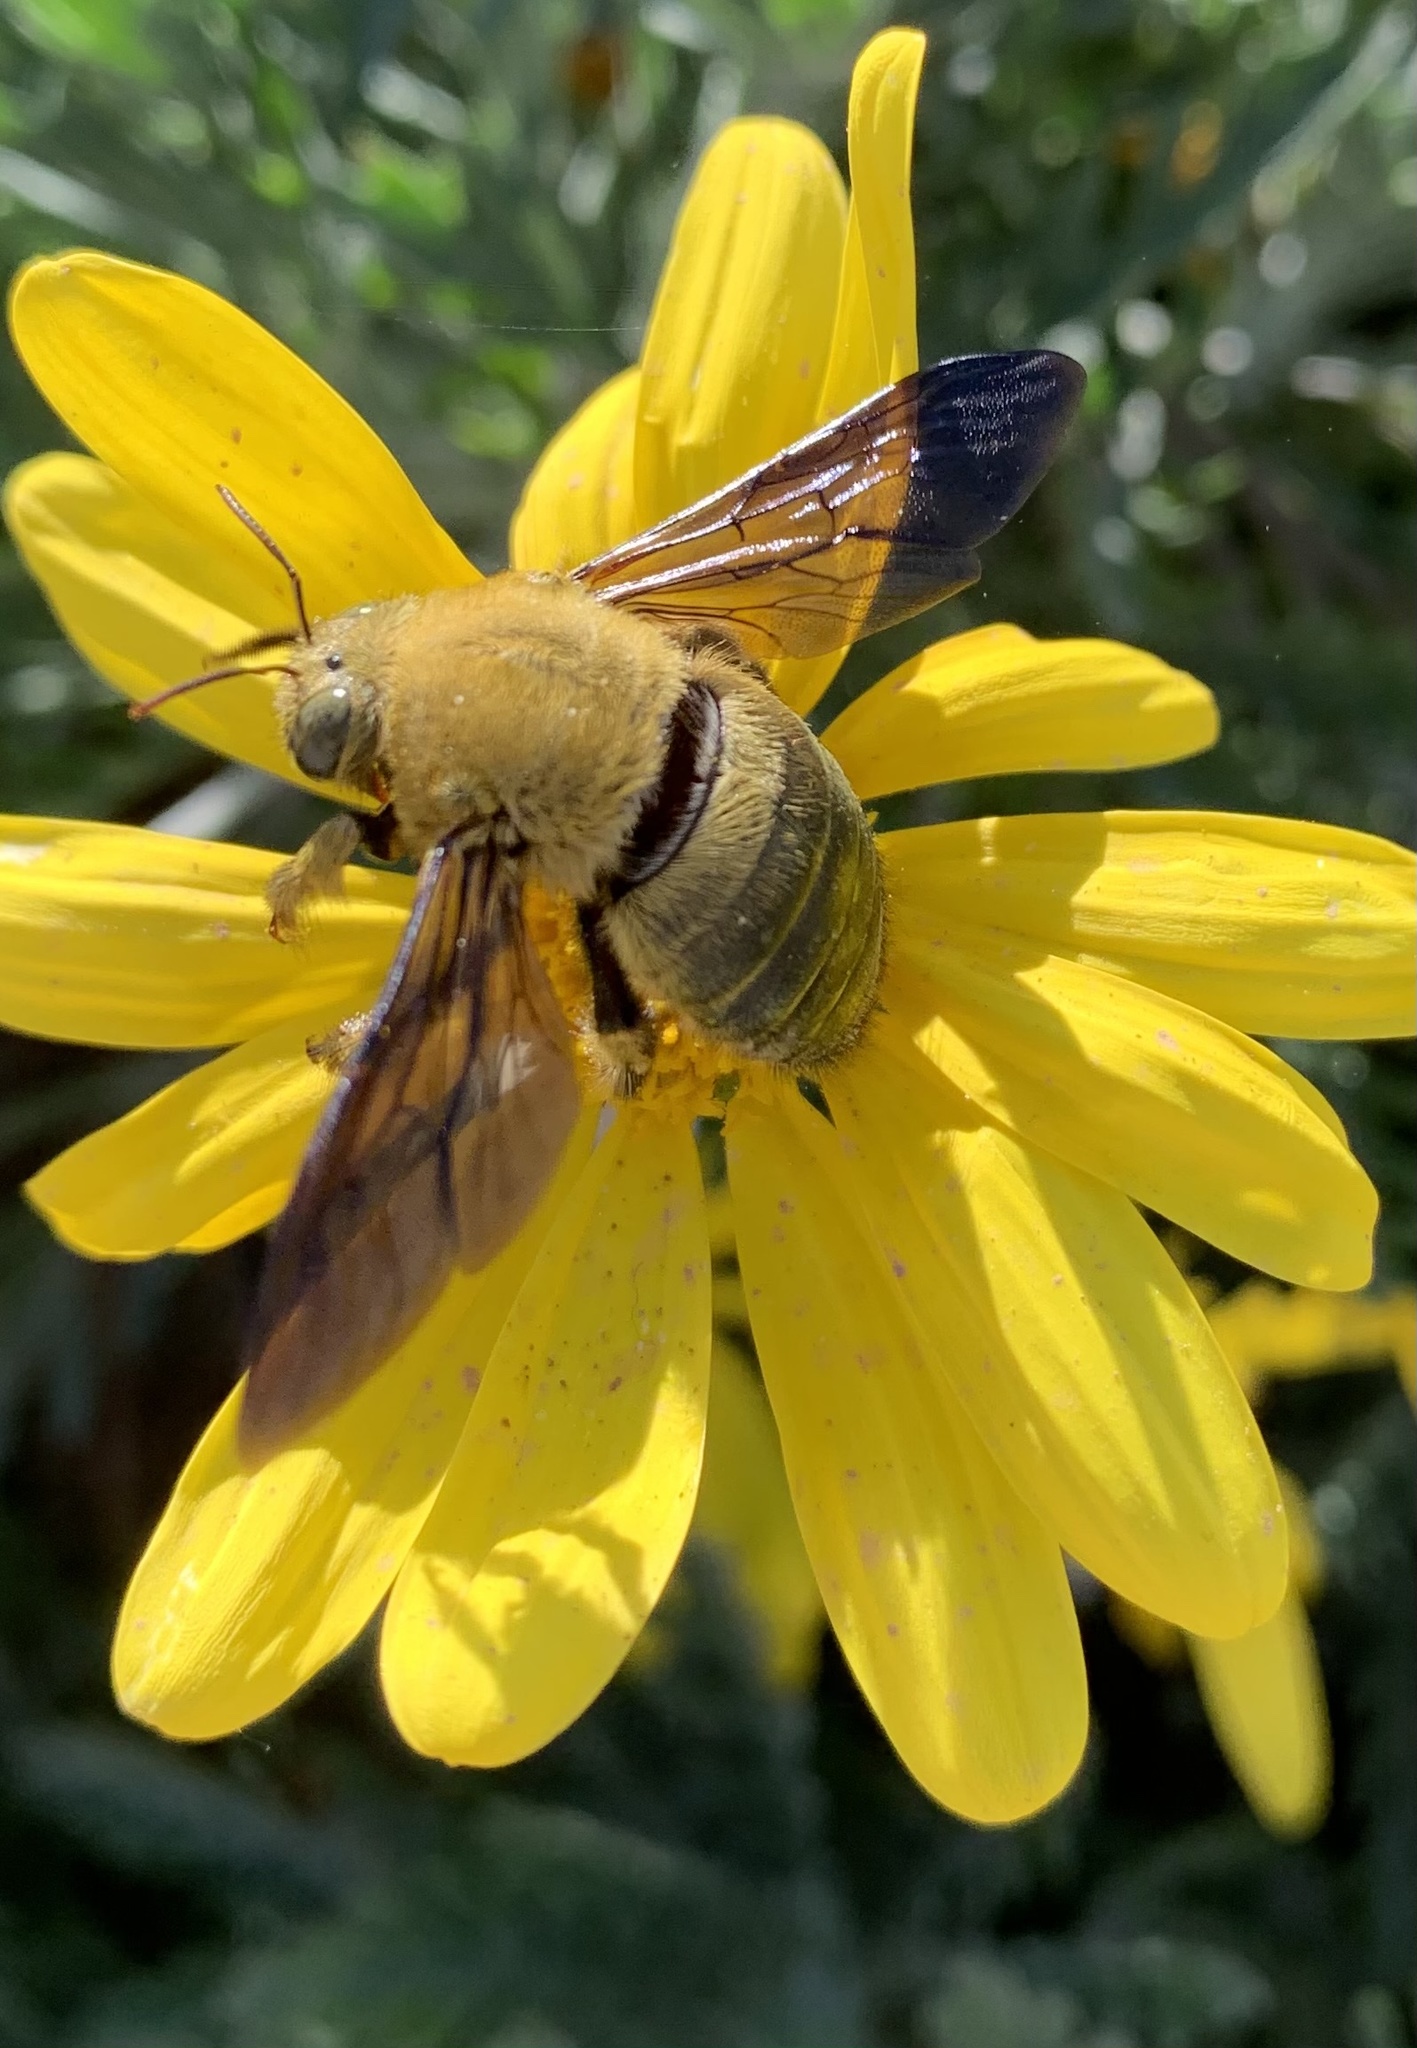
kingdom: Animalia
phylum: Arthropoda
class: Insecta
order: Hymenoptera
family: Apidae
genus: Xylocopa
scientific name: Xylocopa pubescens
